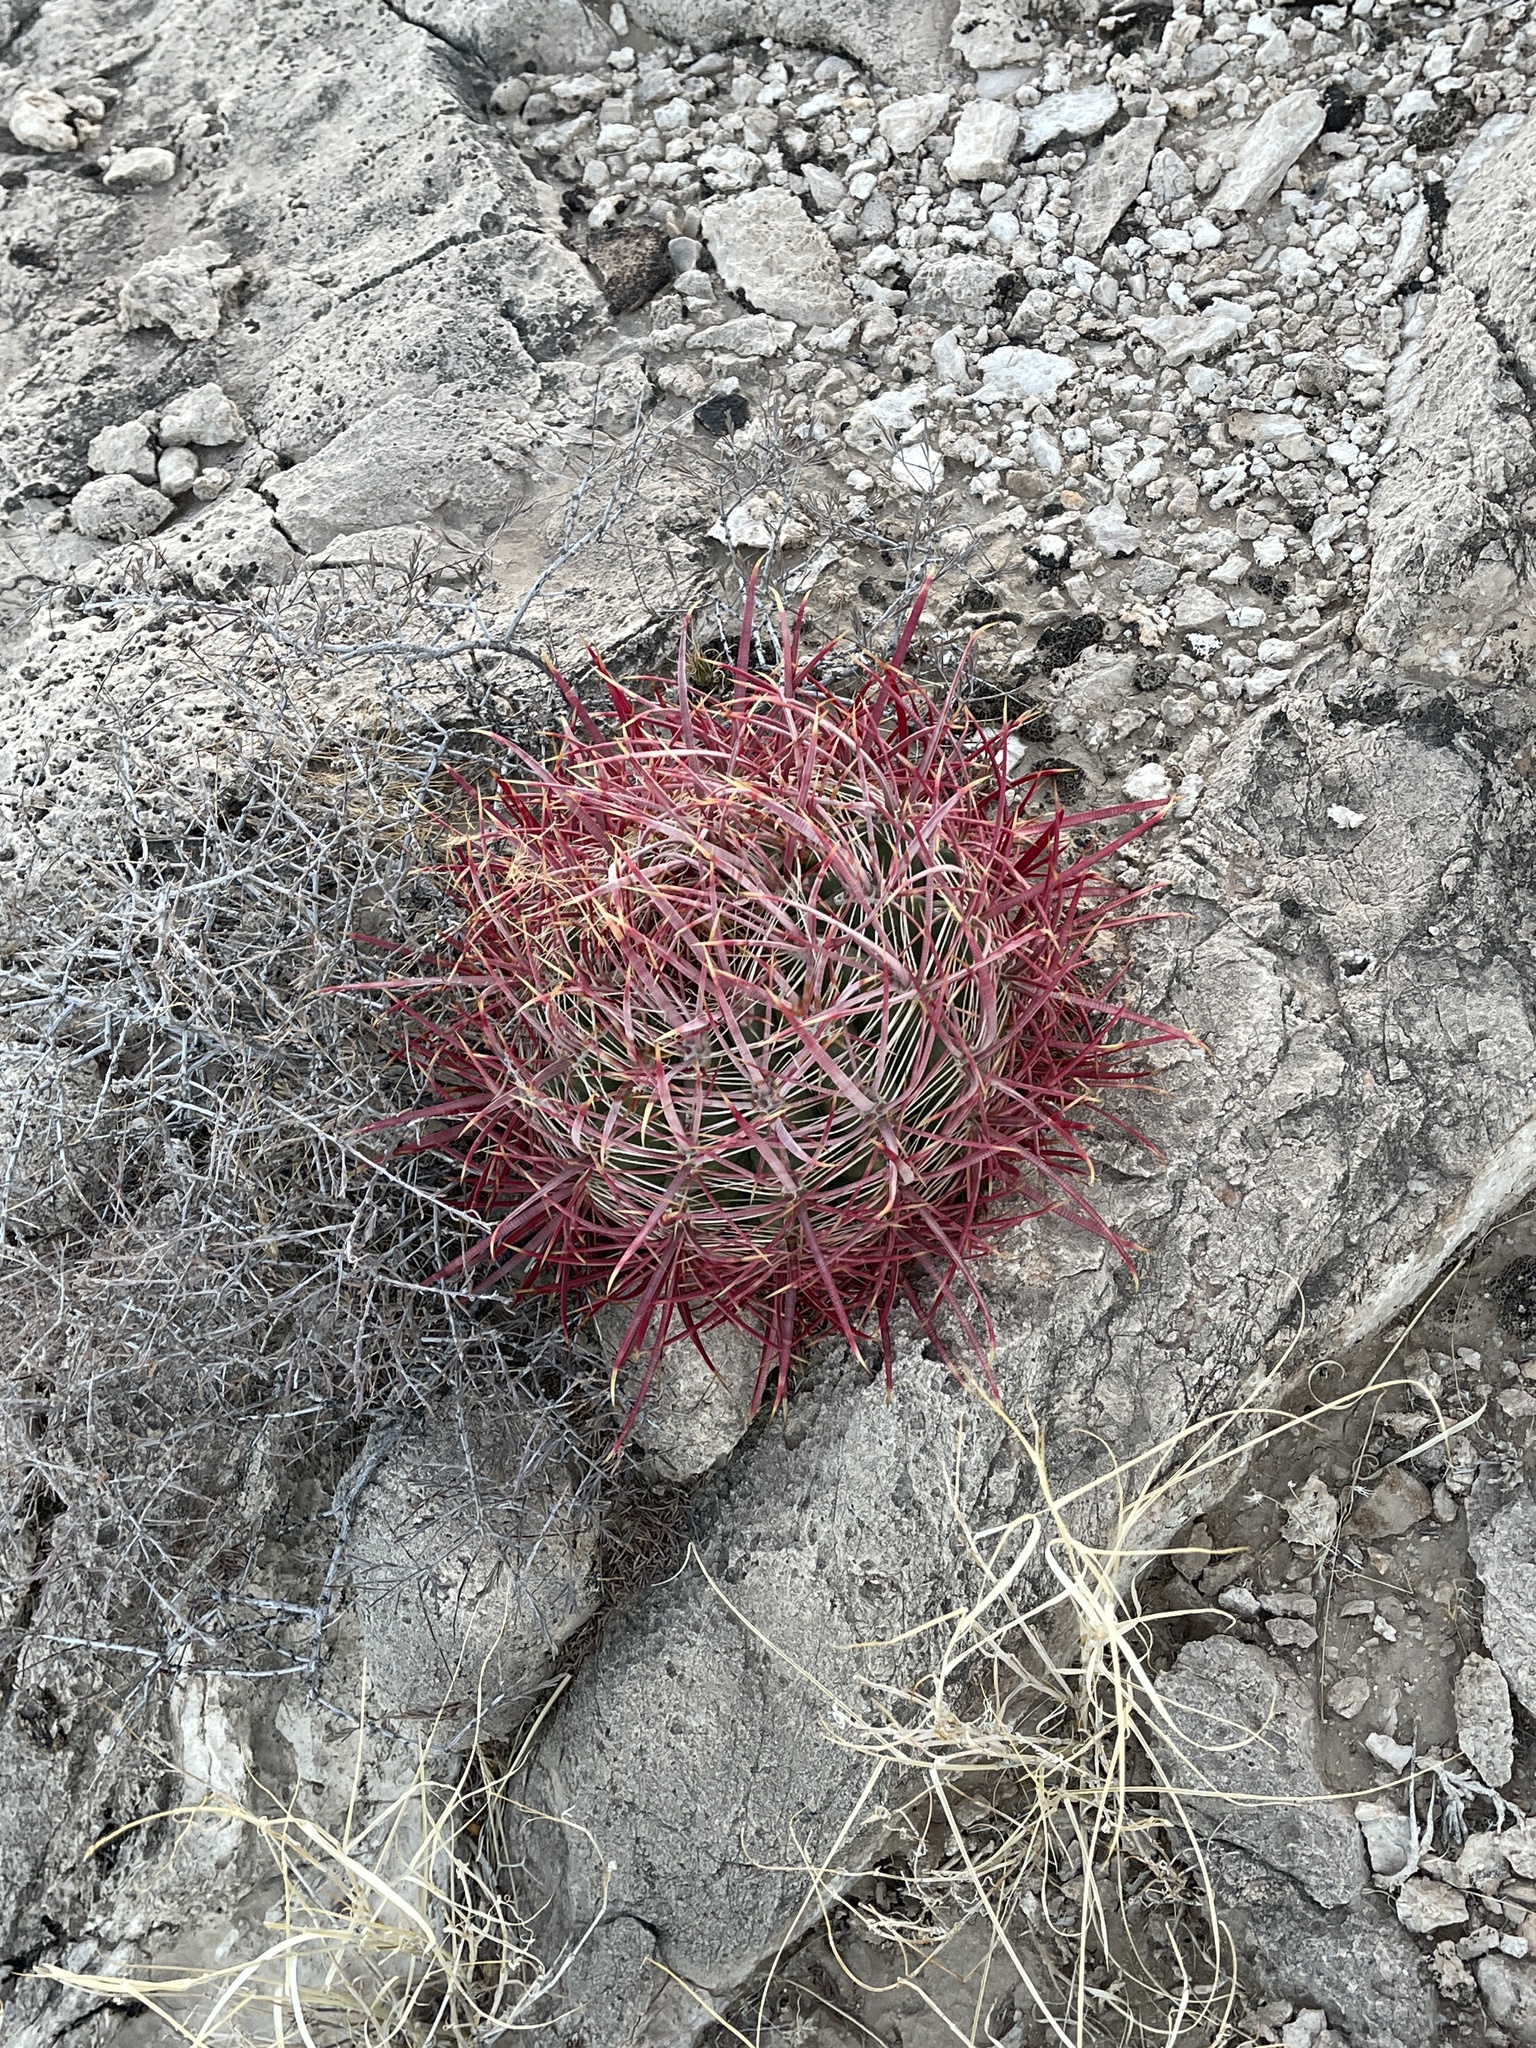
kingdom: Plantae
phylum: Tracheophyta
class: Magnoliopsida
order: Caryophyllales
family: Cactaceae
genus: Ferocactus
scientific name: Ferocactus cylindraceus
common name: California barrel cactus
